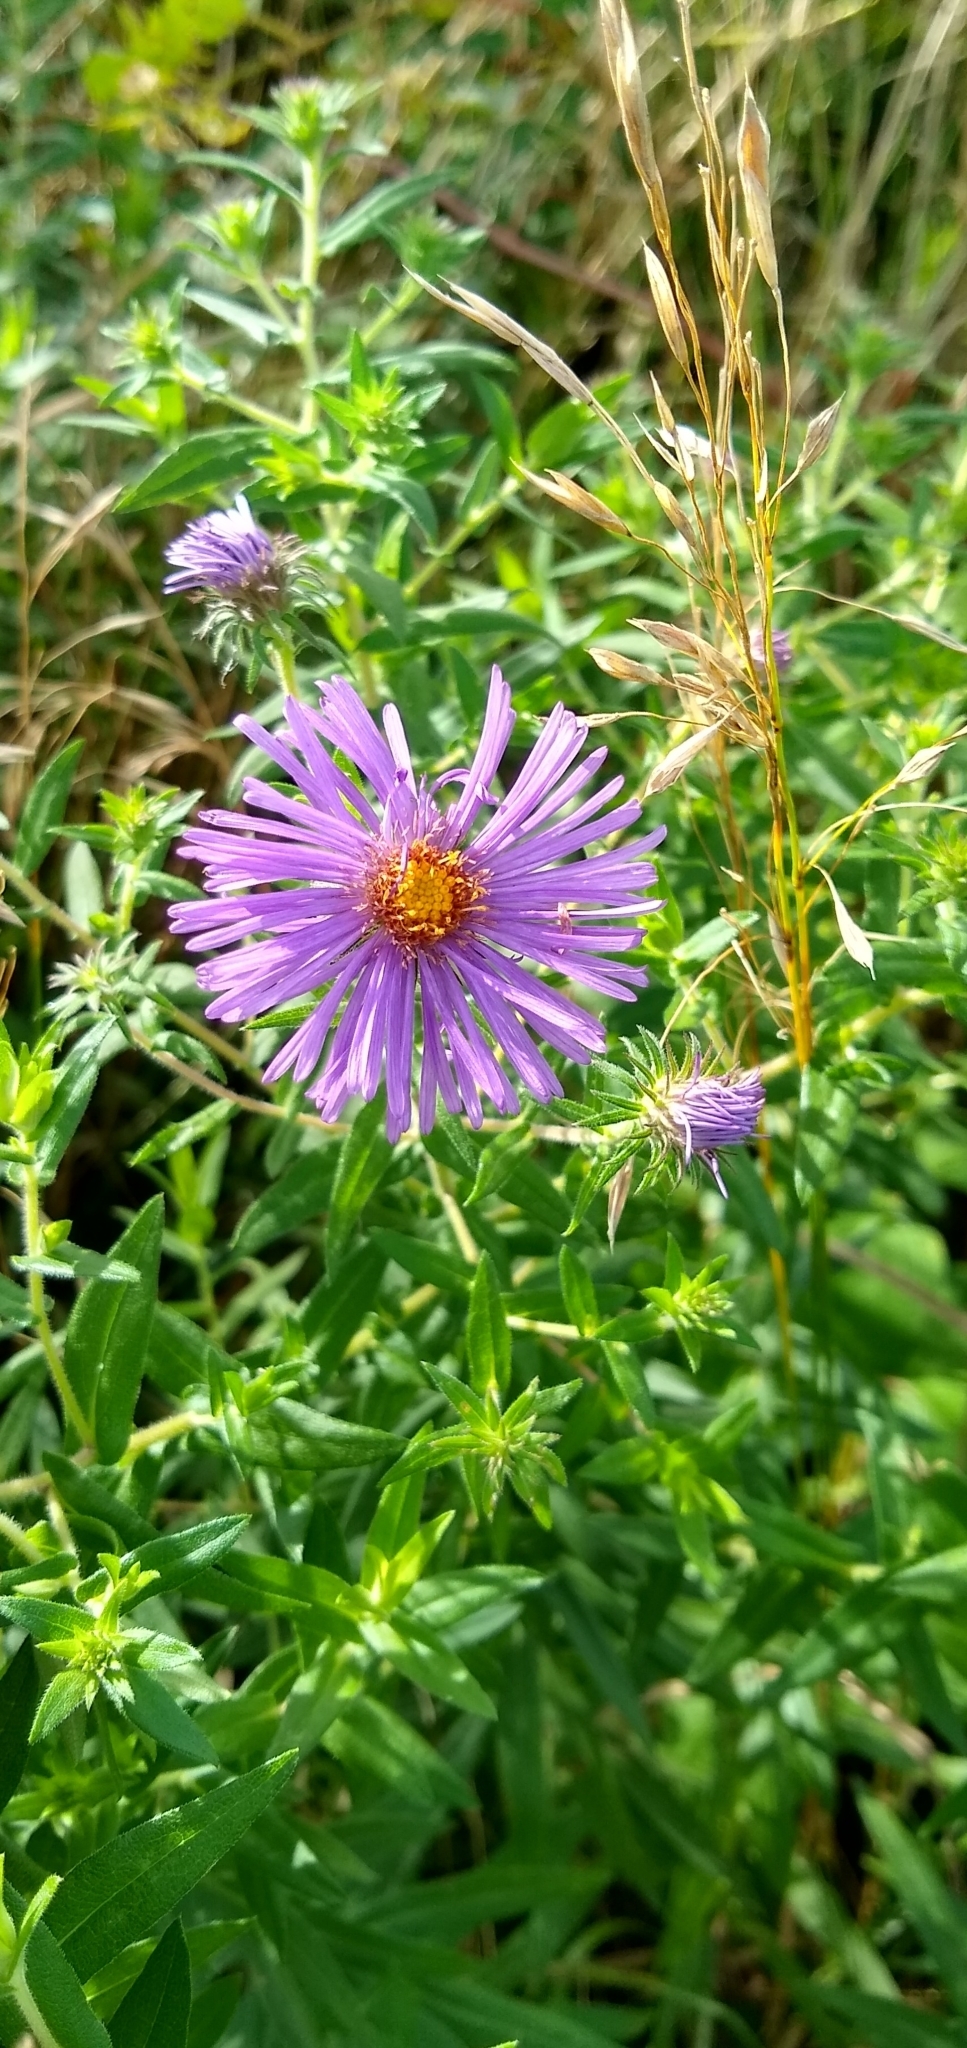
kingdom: Plantae
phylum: Tracheophyta
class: Magnoliopsida
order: Asterales
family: Asteraceae
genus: Symphyotrichum
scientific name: Symphyotrichum novae-angliae
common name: Michaelmas daisy
